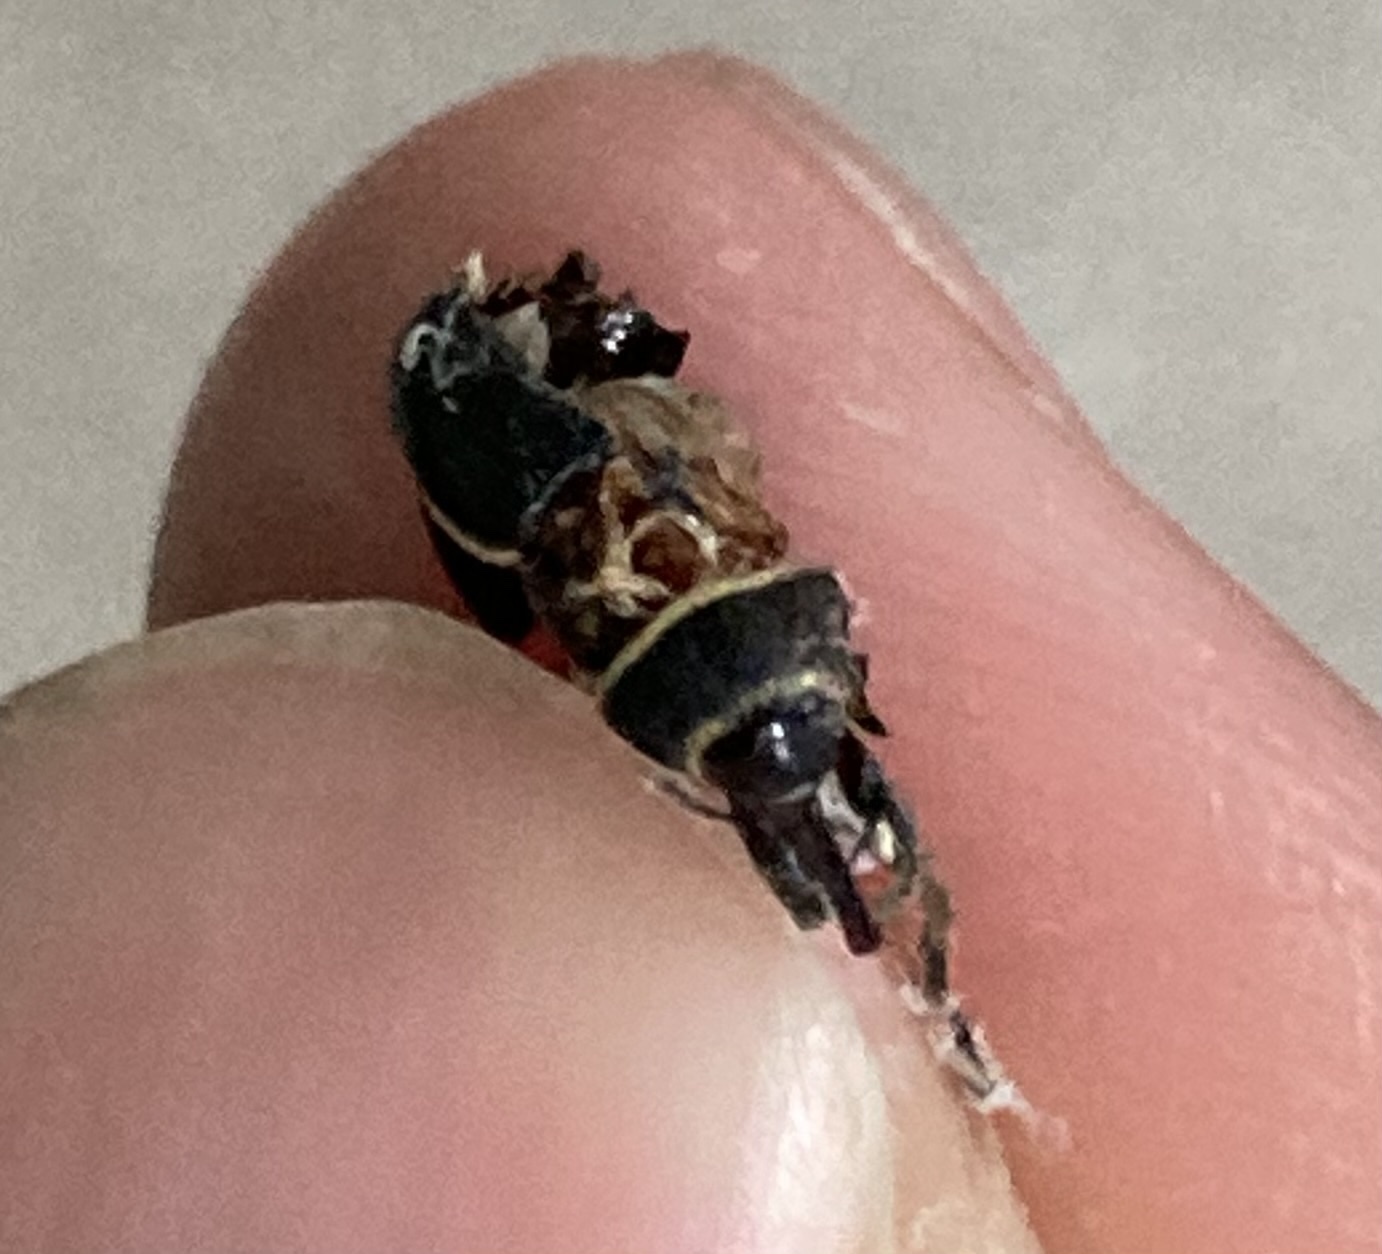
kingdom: Animalia
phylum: Arthropoda
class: Insecta
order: Coleoptera
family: Curculionidae
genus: Rhyssomatus
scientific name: Rhyssomatus marginatus
